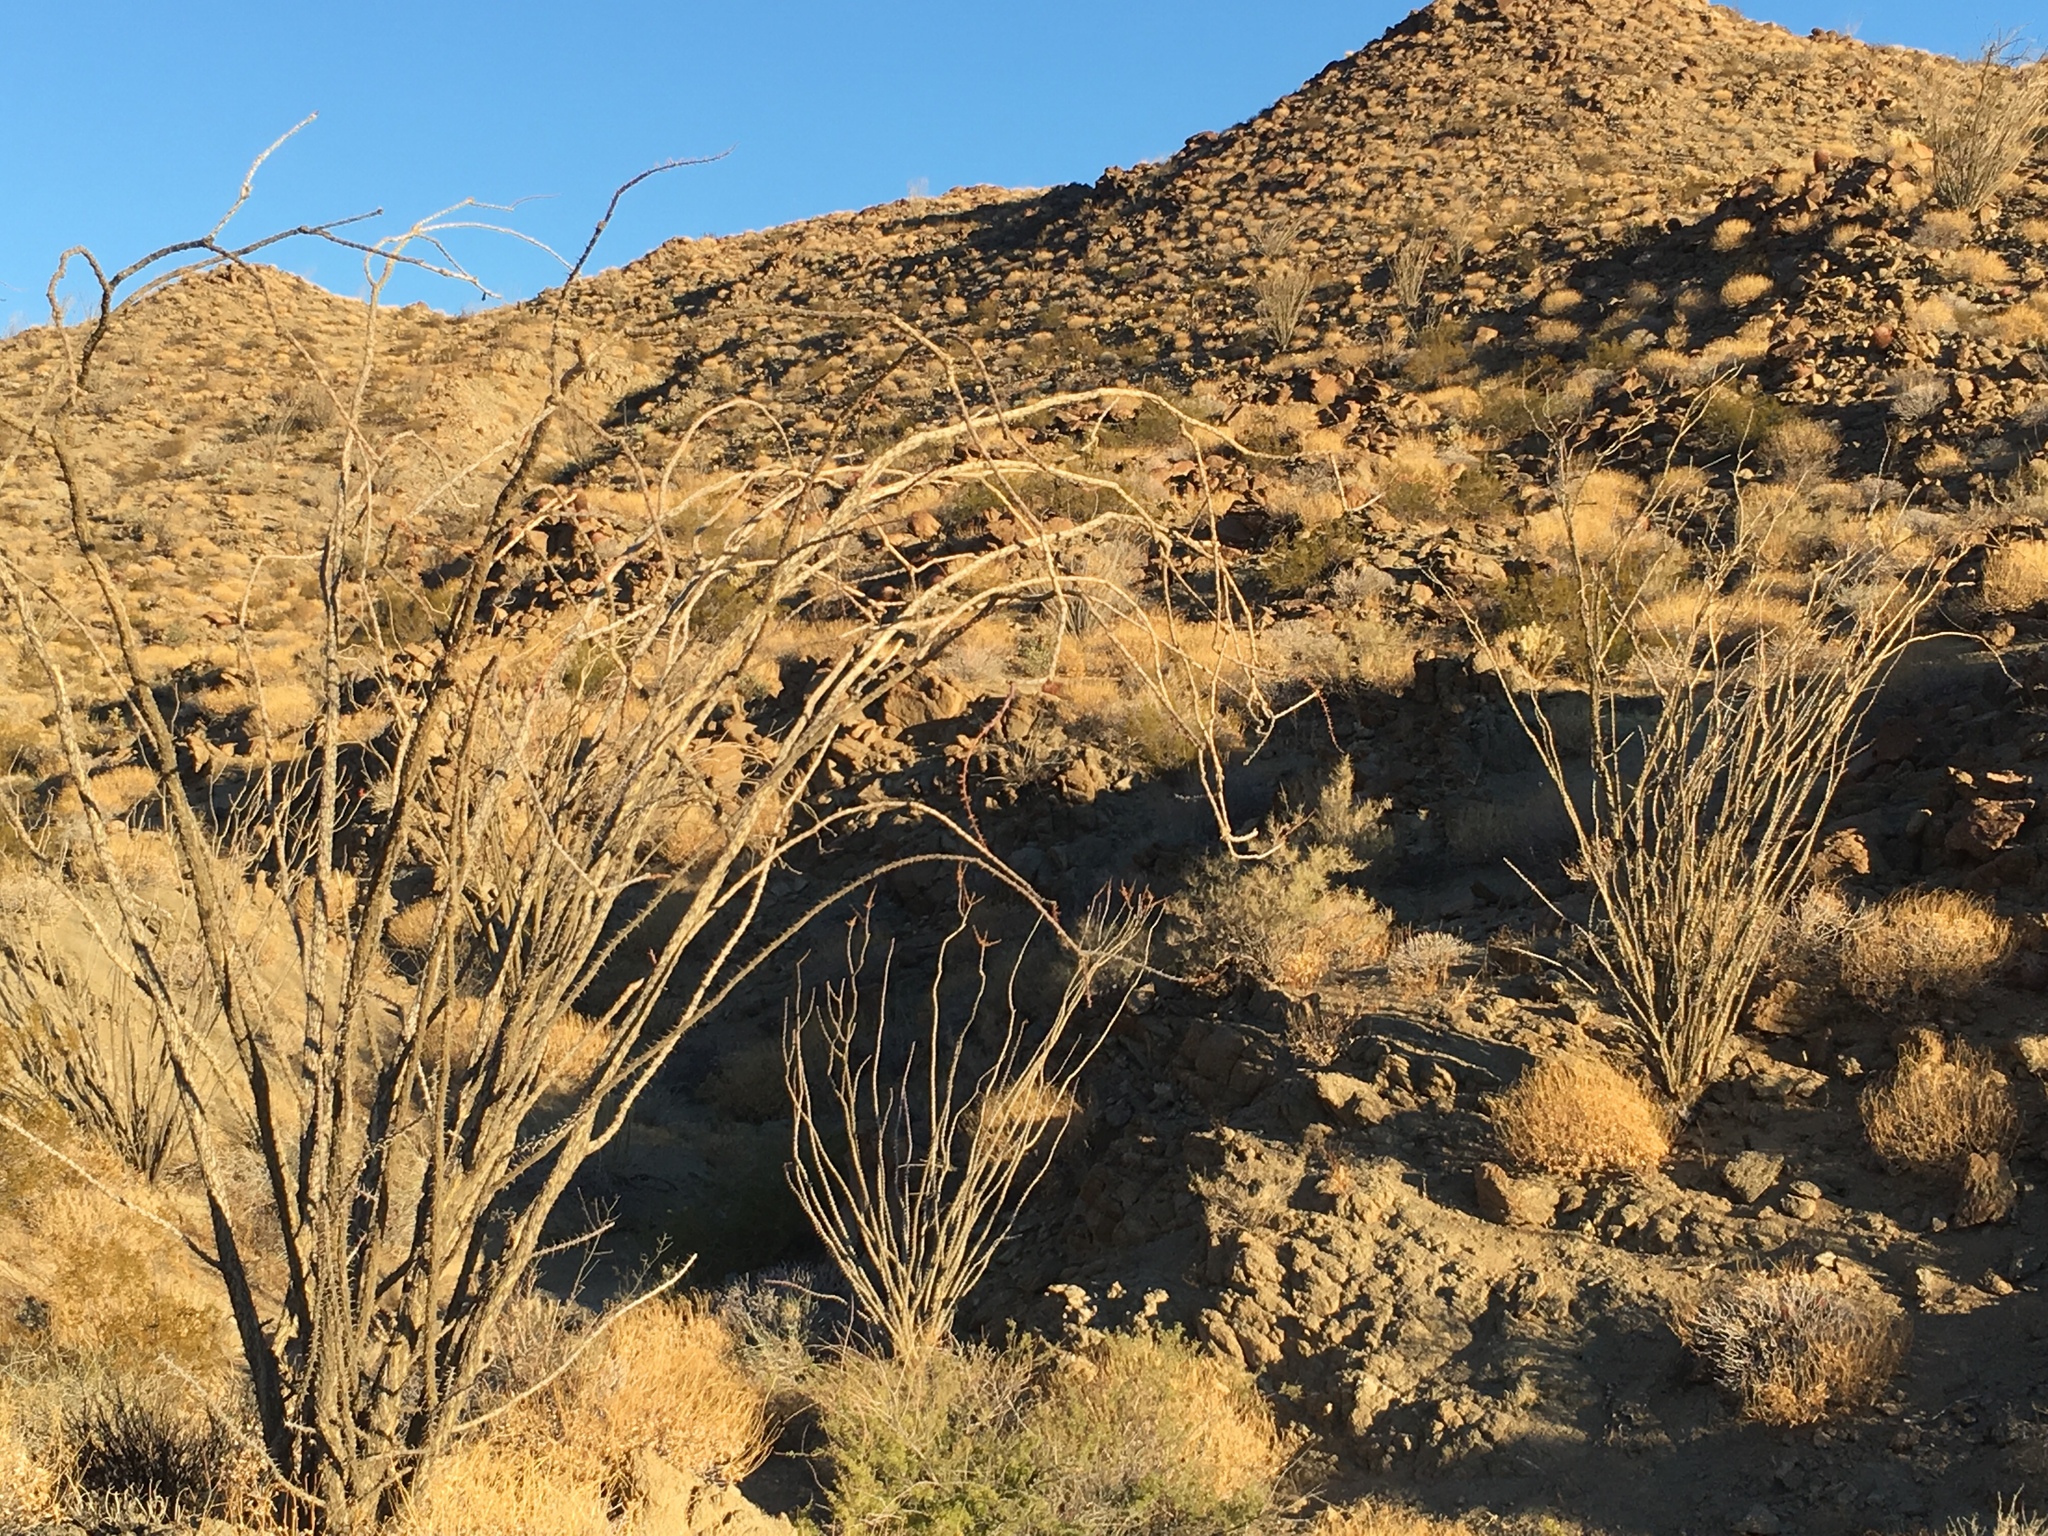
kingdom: Plantae
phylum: Tracheophyta
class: Magnoliopsida
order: Ericales
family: Fouquieriaceae
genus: Fouquieria
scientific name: Fouquieria splendens
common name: Vine-cactus
